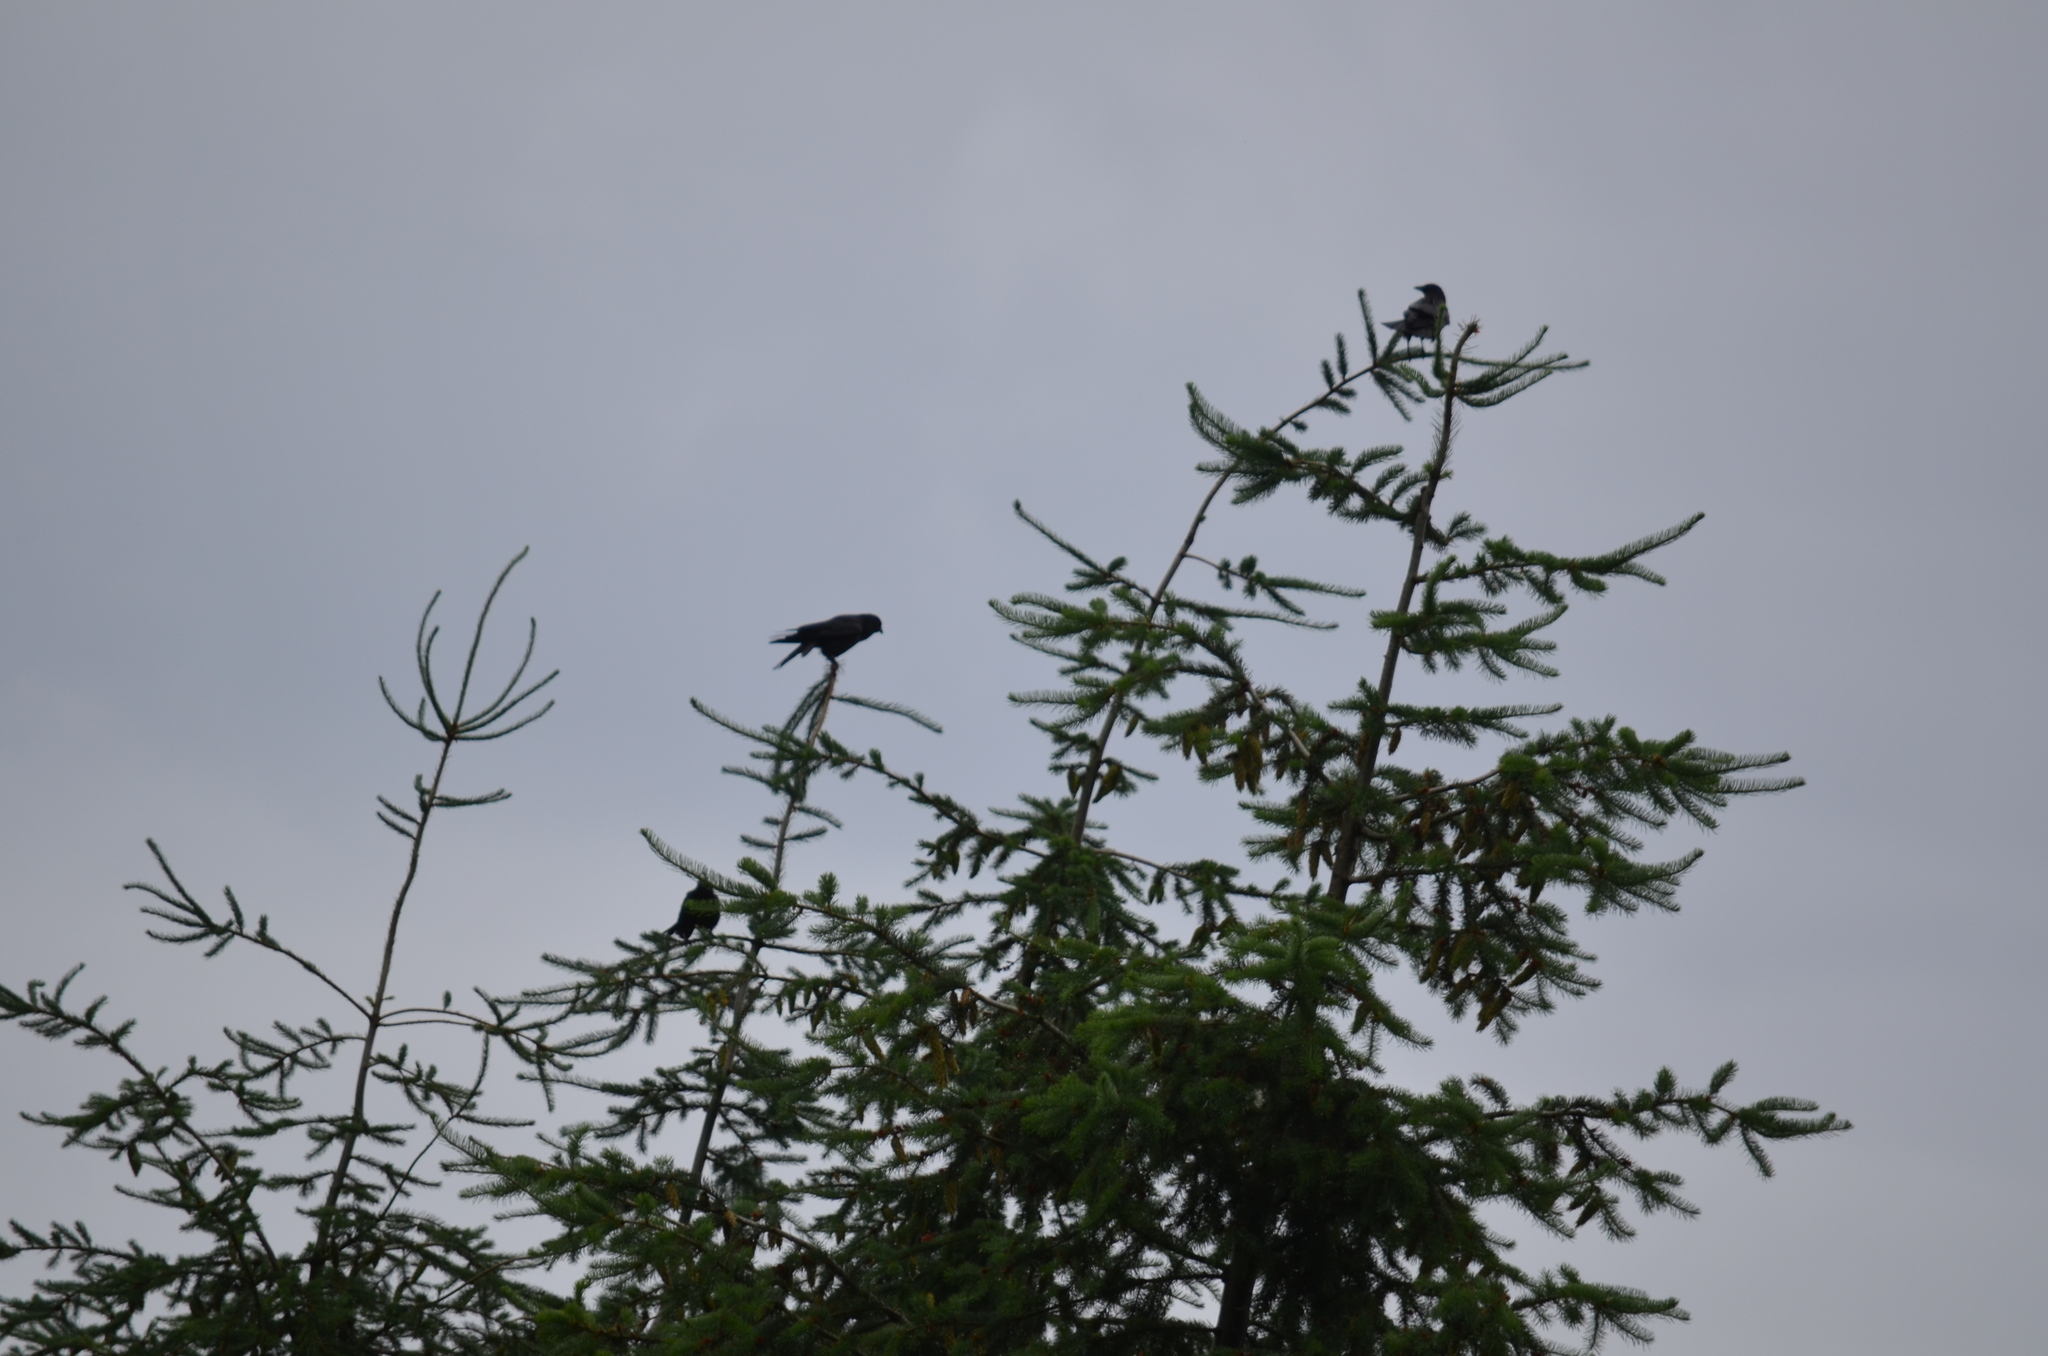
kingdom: Animalia
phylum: Chordata
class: Aves
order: Passeriformes
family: Corvidae
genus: Corvus
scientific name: Corvus brachyrhynchos
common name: American crow
